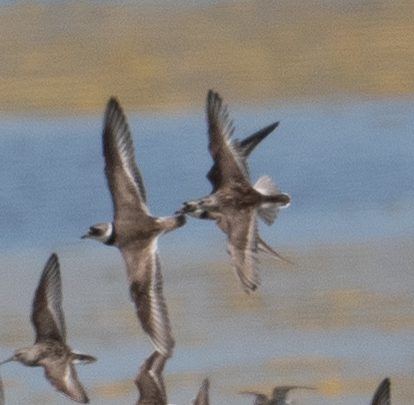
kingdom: Animalia
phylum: Chordata
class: Aves
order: Charadriiformes
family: Charadriidae
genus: Charadrius
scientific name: Charadrius semipalmatus
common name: Semipalmated plover
